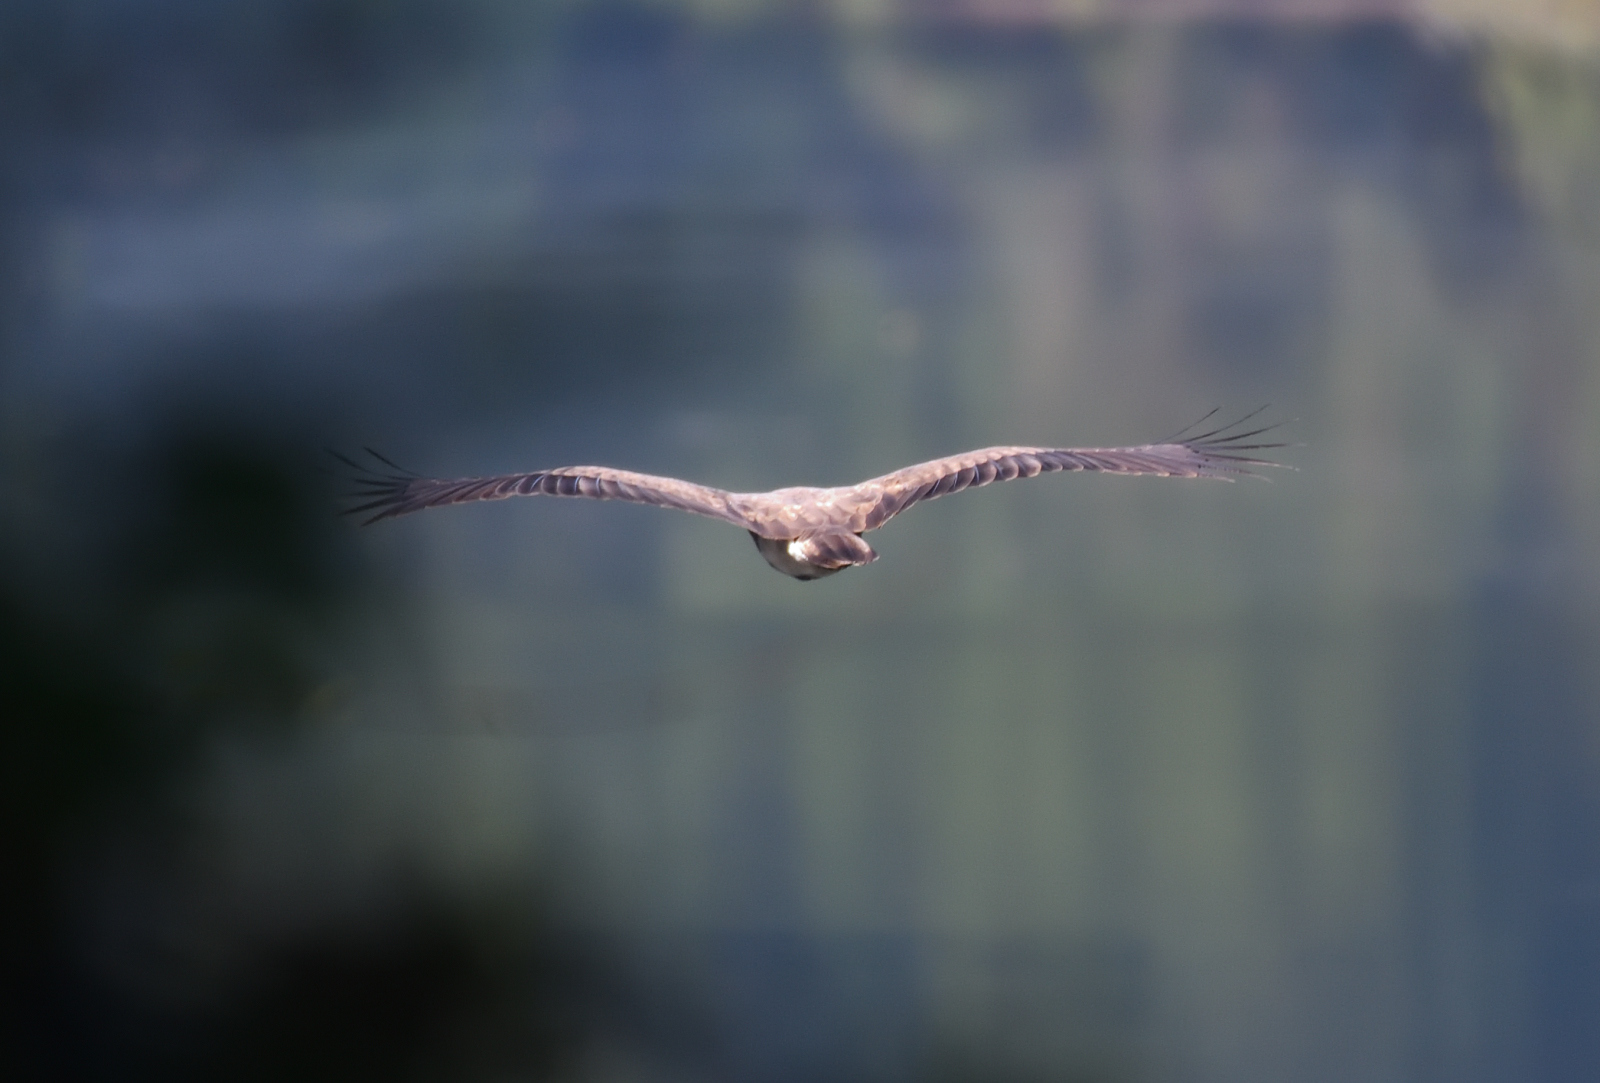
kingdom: Animalia
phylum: Chordata
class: Aves
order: Accipitriformes
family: Accipitridae
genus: Icthyophaga
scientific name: Icthyophaga humilis
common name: Lesser fish-eagle
